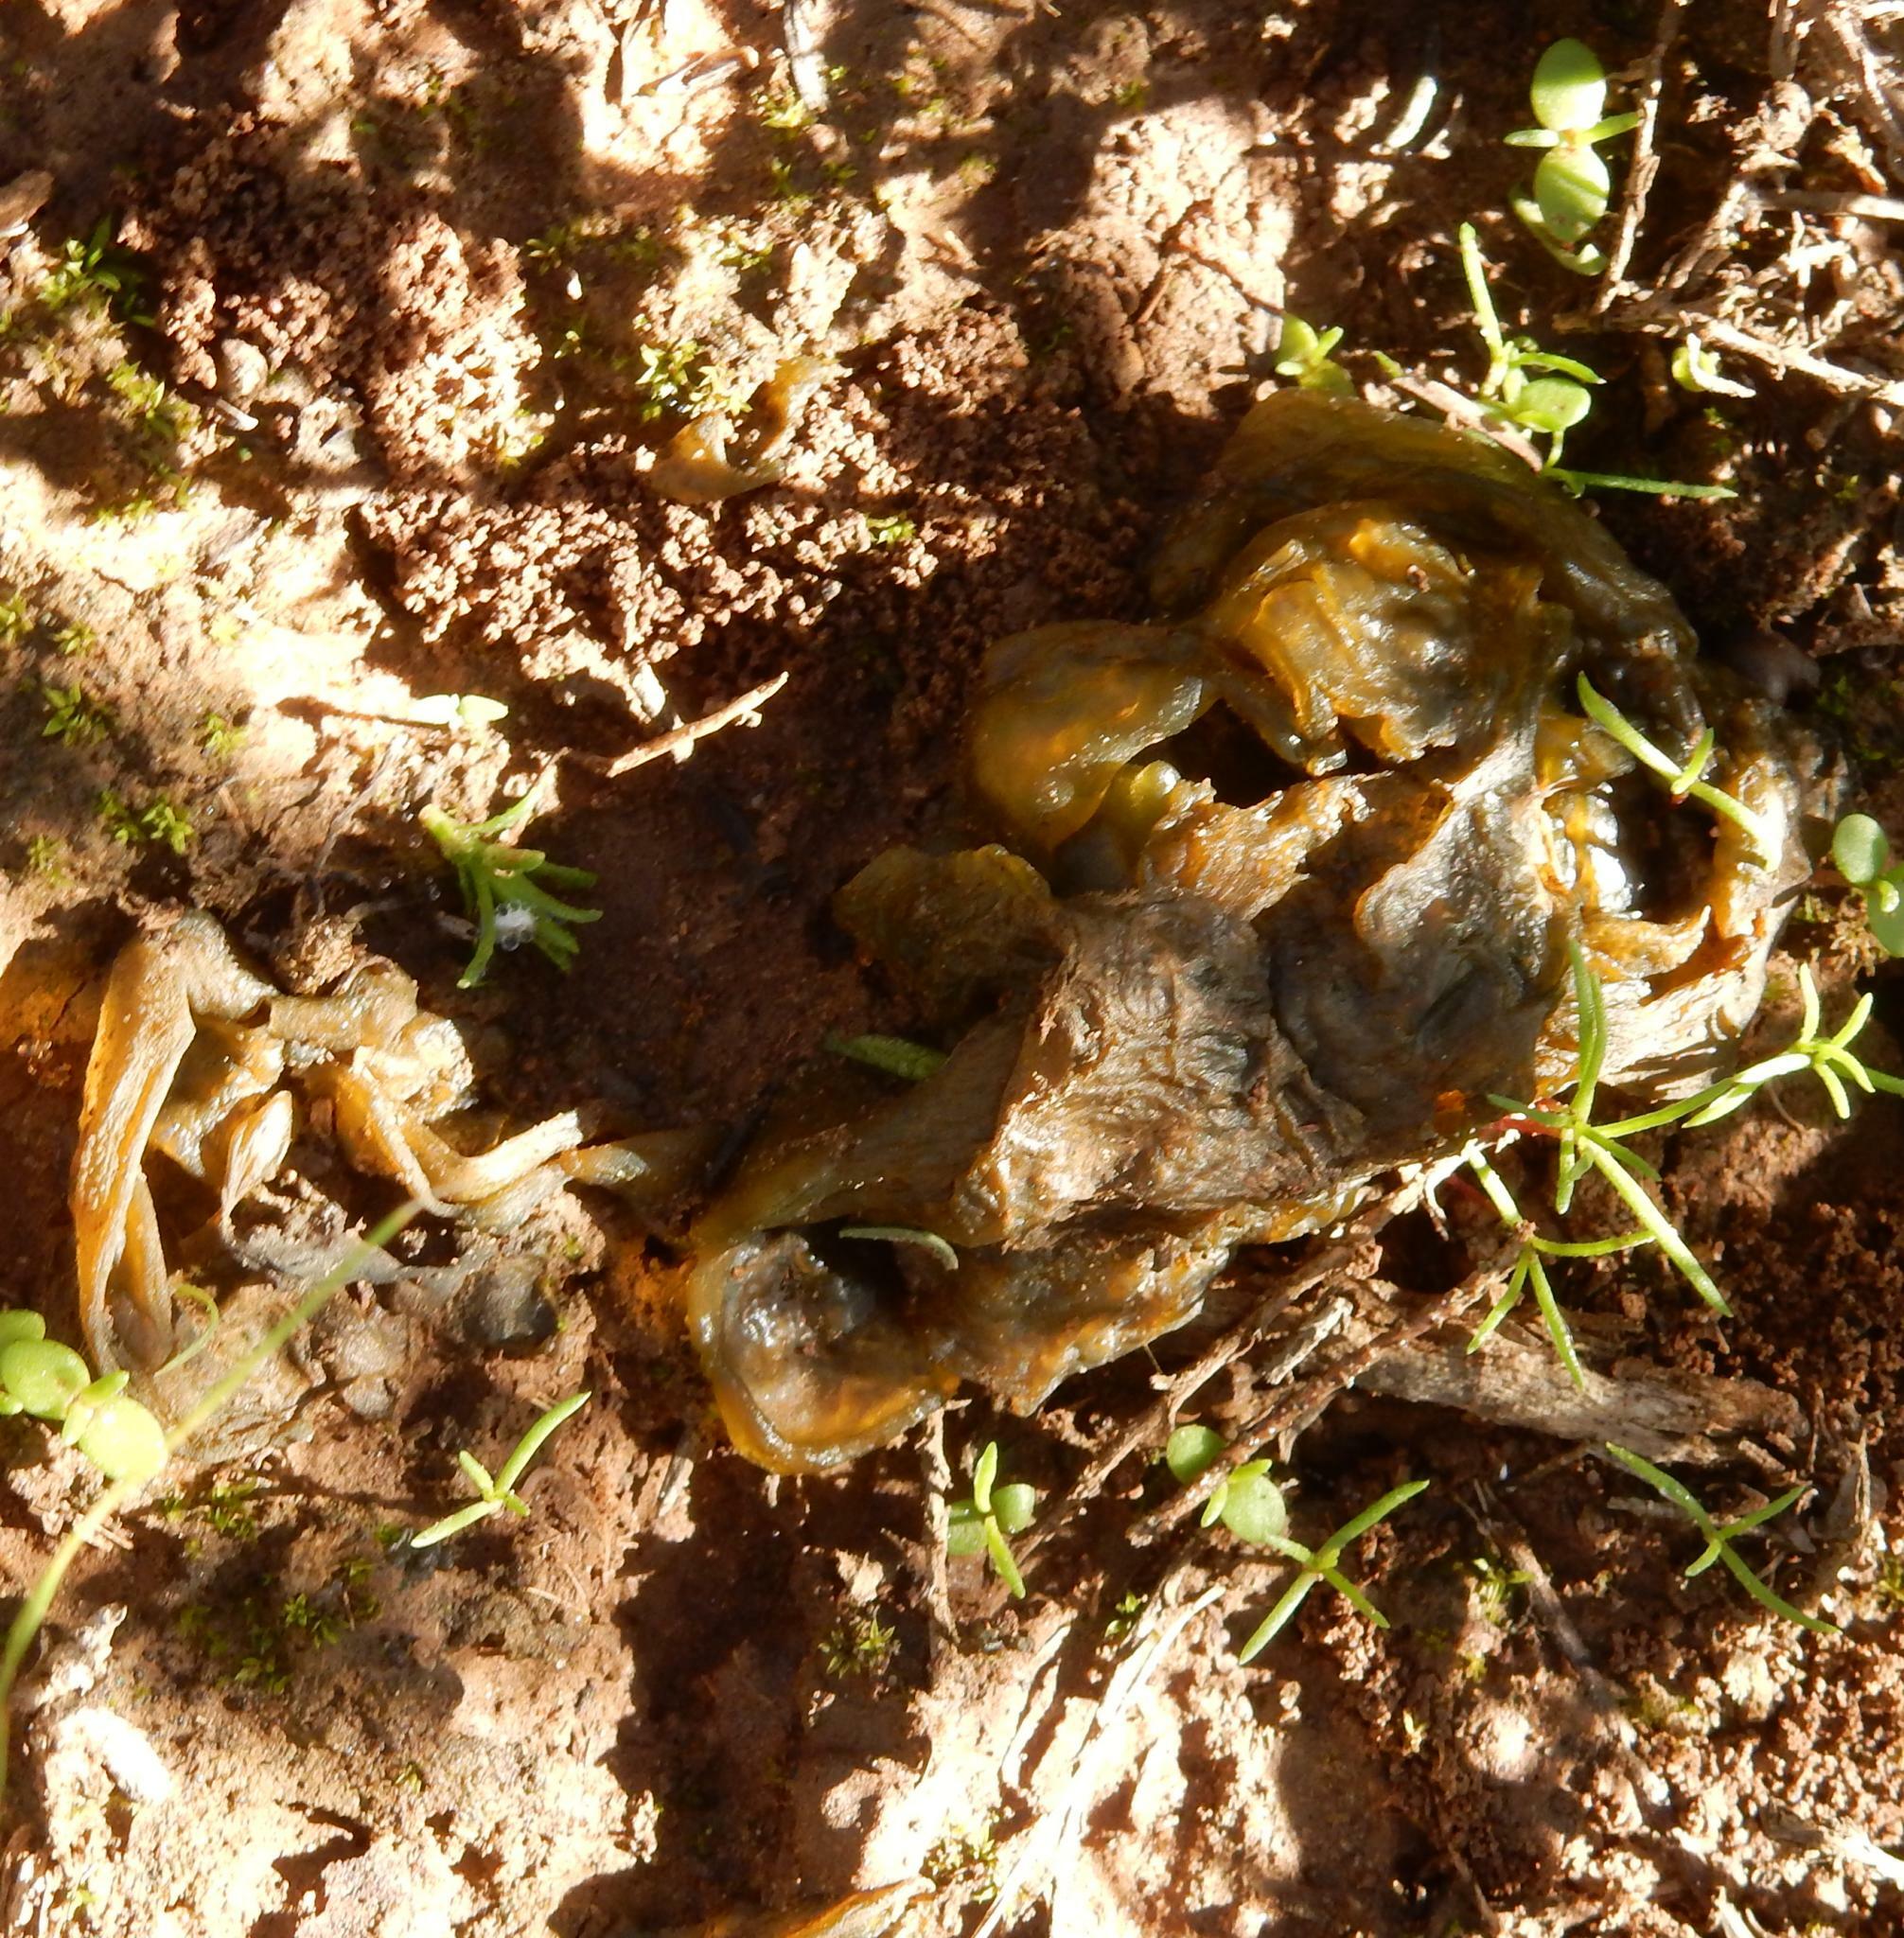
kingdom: Bacteria
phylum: Cyanobacteria
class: Cyanobacteriia
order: Cyanobacteriales
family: Nostocaceae
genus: Nostoc
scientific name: Nostoc commune
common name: Star jelly
